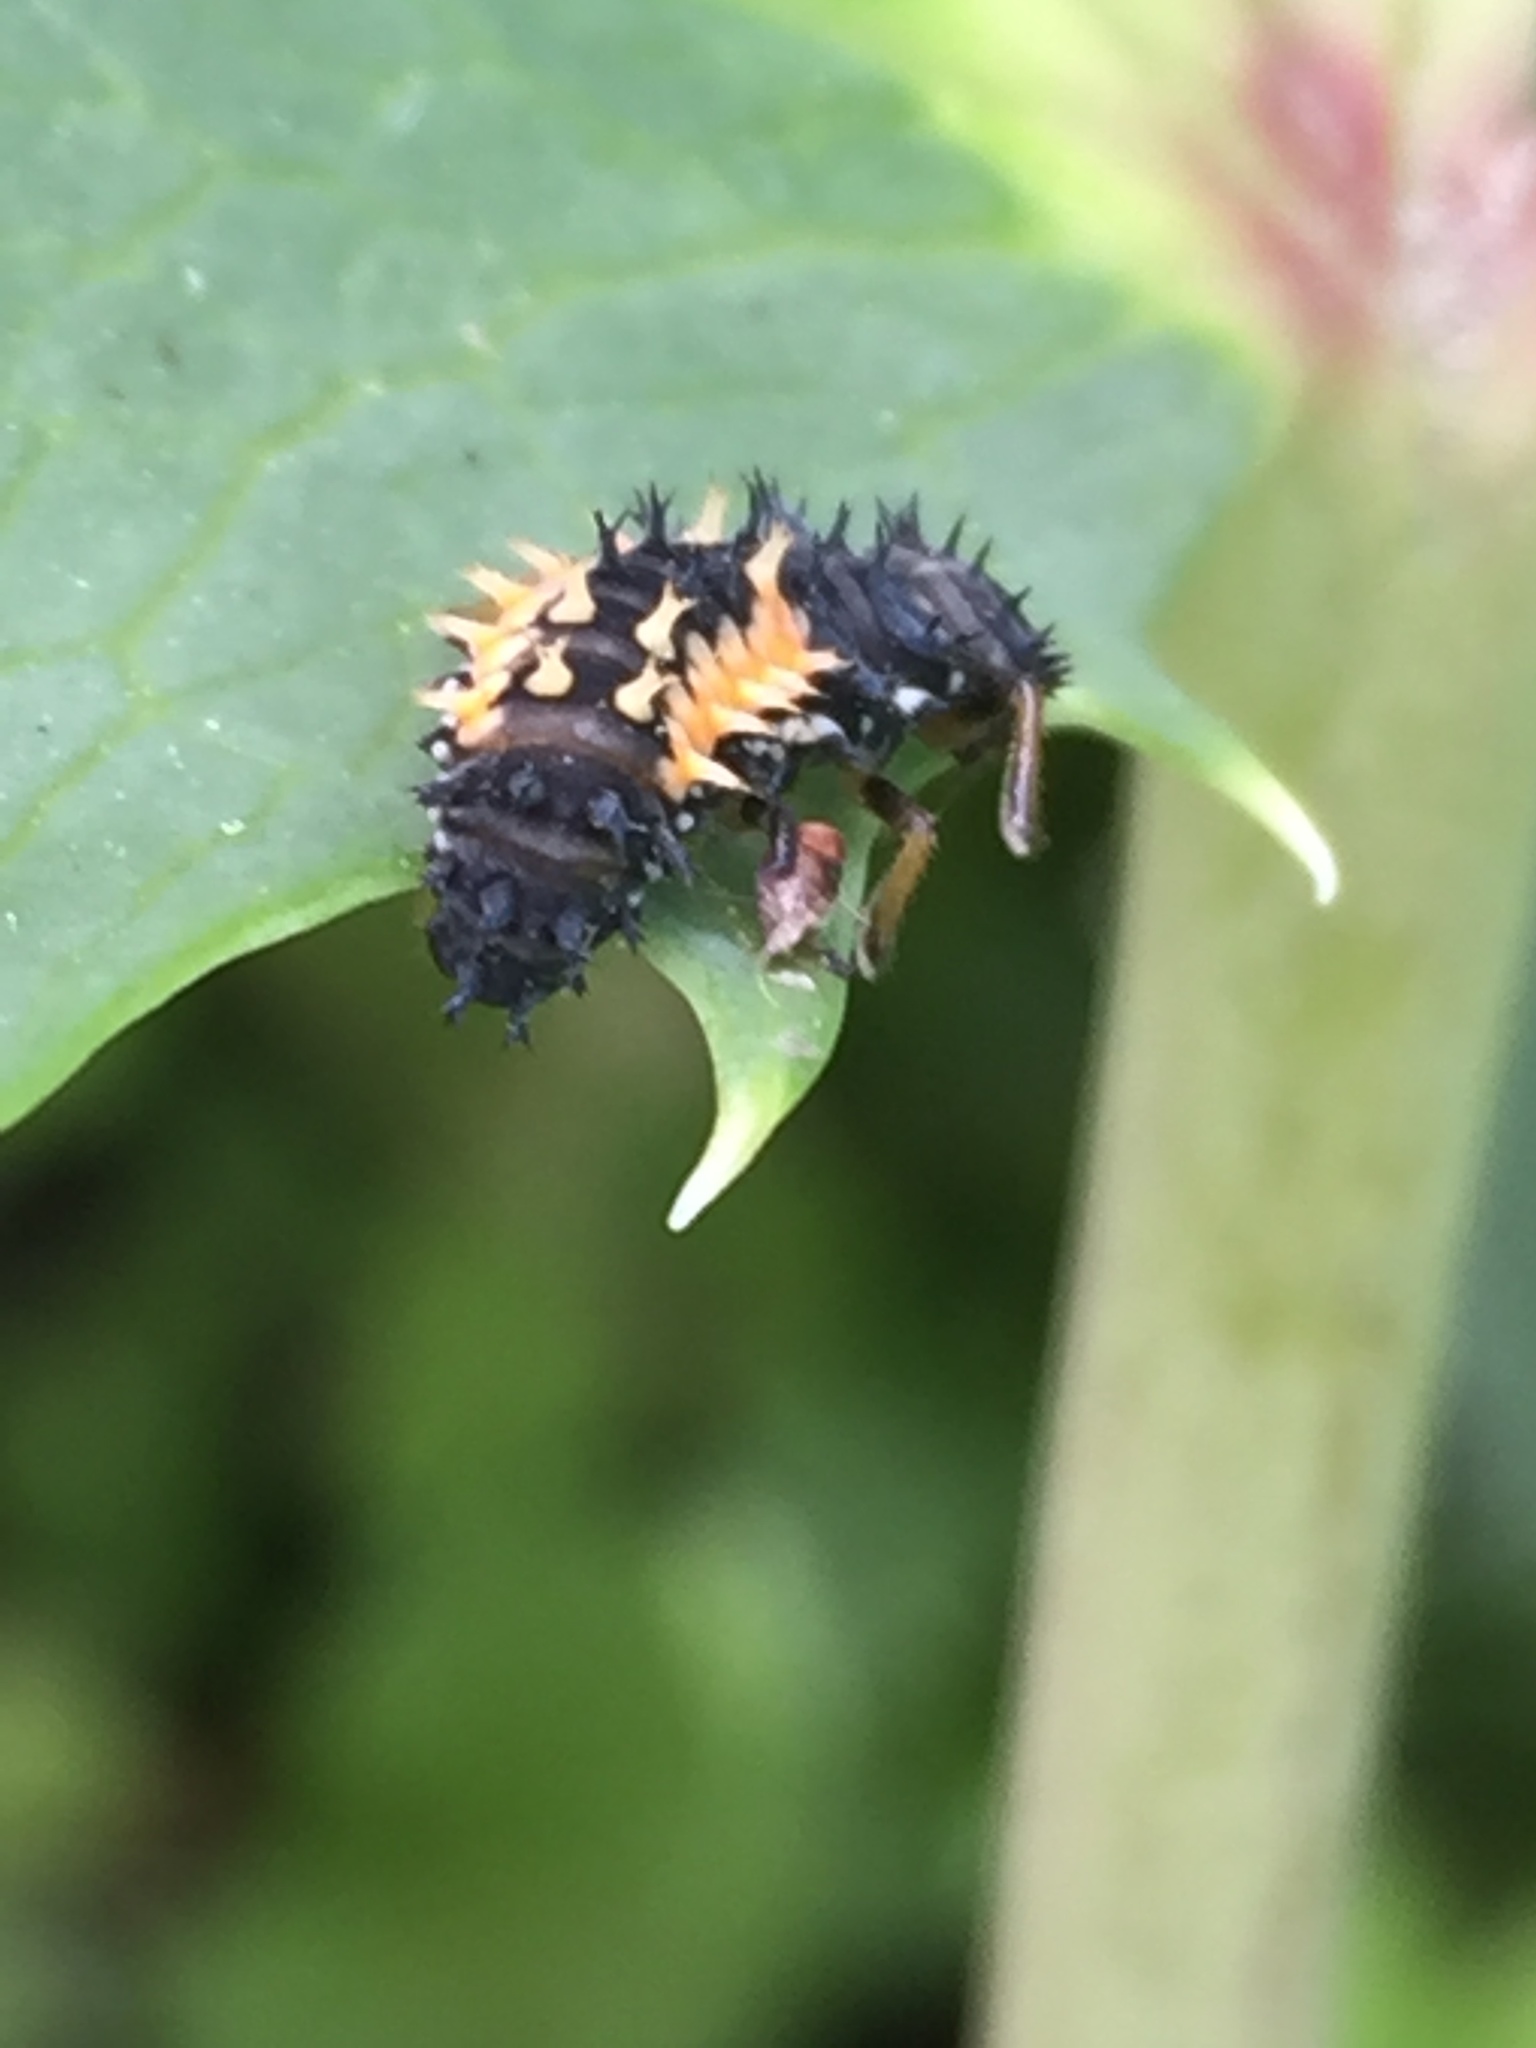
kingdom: Animalia
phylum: Arthropoda
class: Insecta
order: Coleoptera
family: Coccinellidae
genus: Harmonia
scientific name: Harmonia axyridis
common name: Harlequin ladybird
